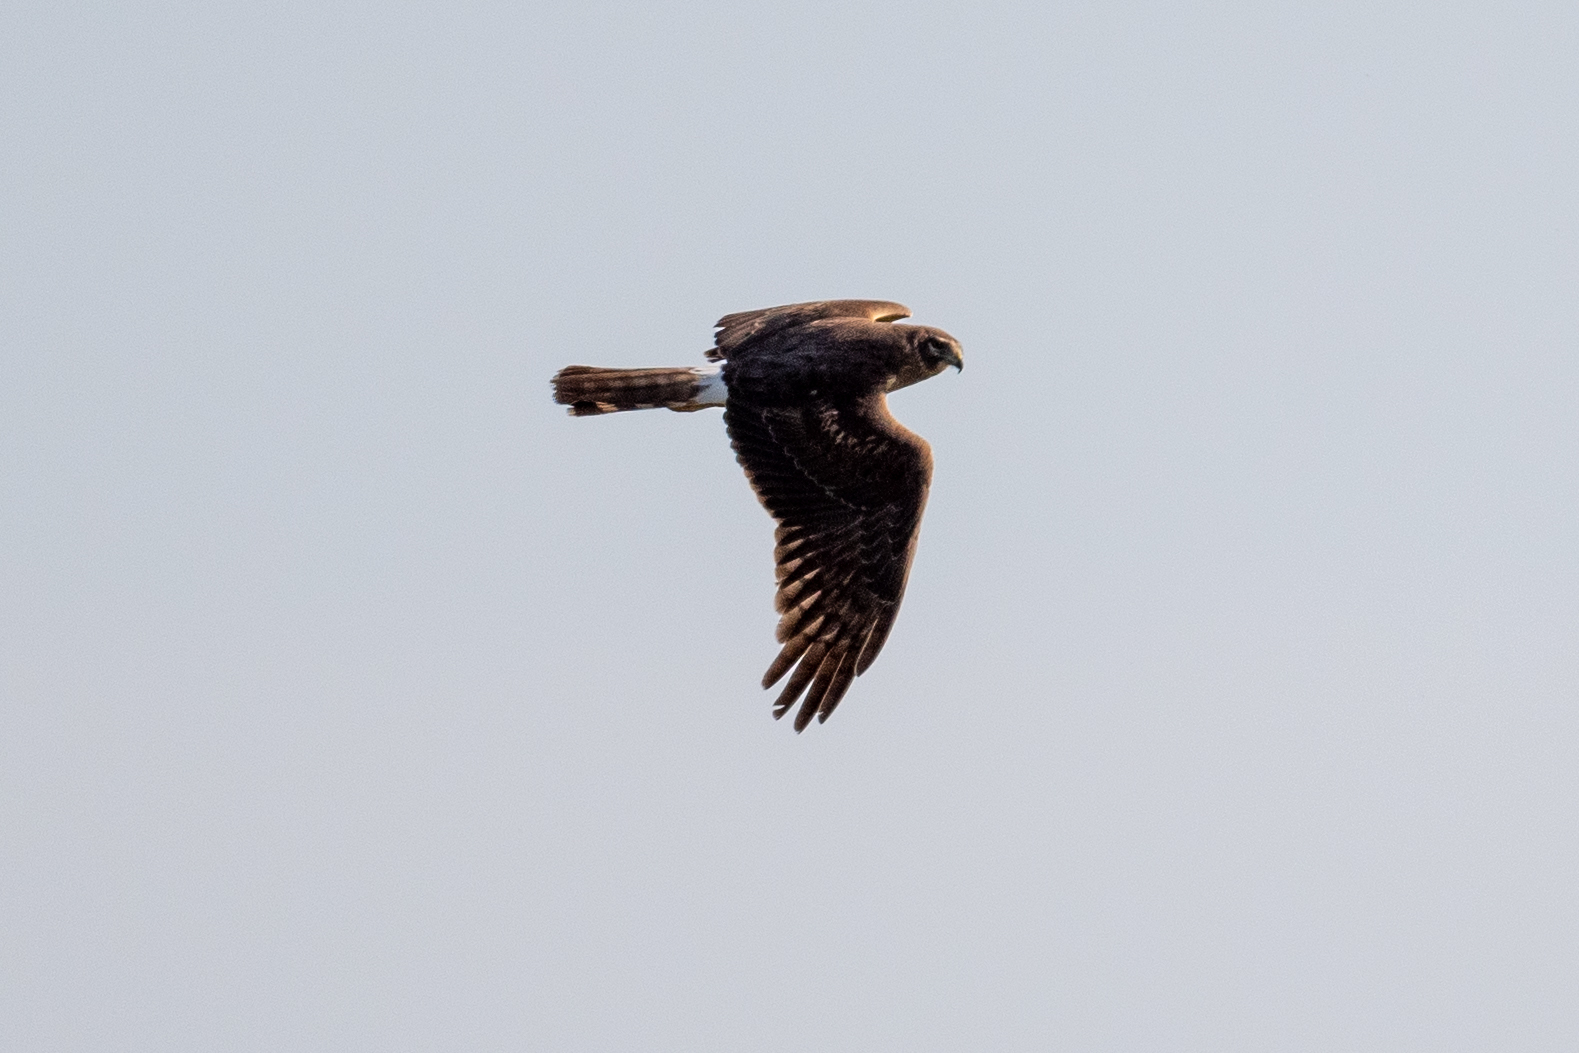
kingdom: Animalia
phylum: Chordata
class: Aves
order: Accipitriformes
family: Accipitridae
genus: Circus
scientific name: Circus cyaneus
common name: Hen harrier
